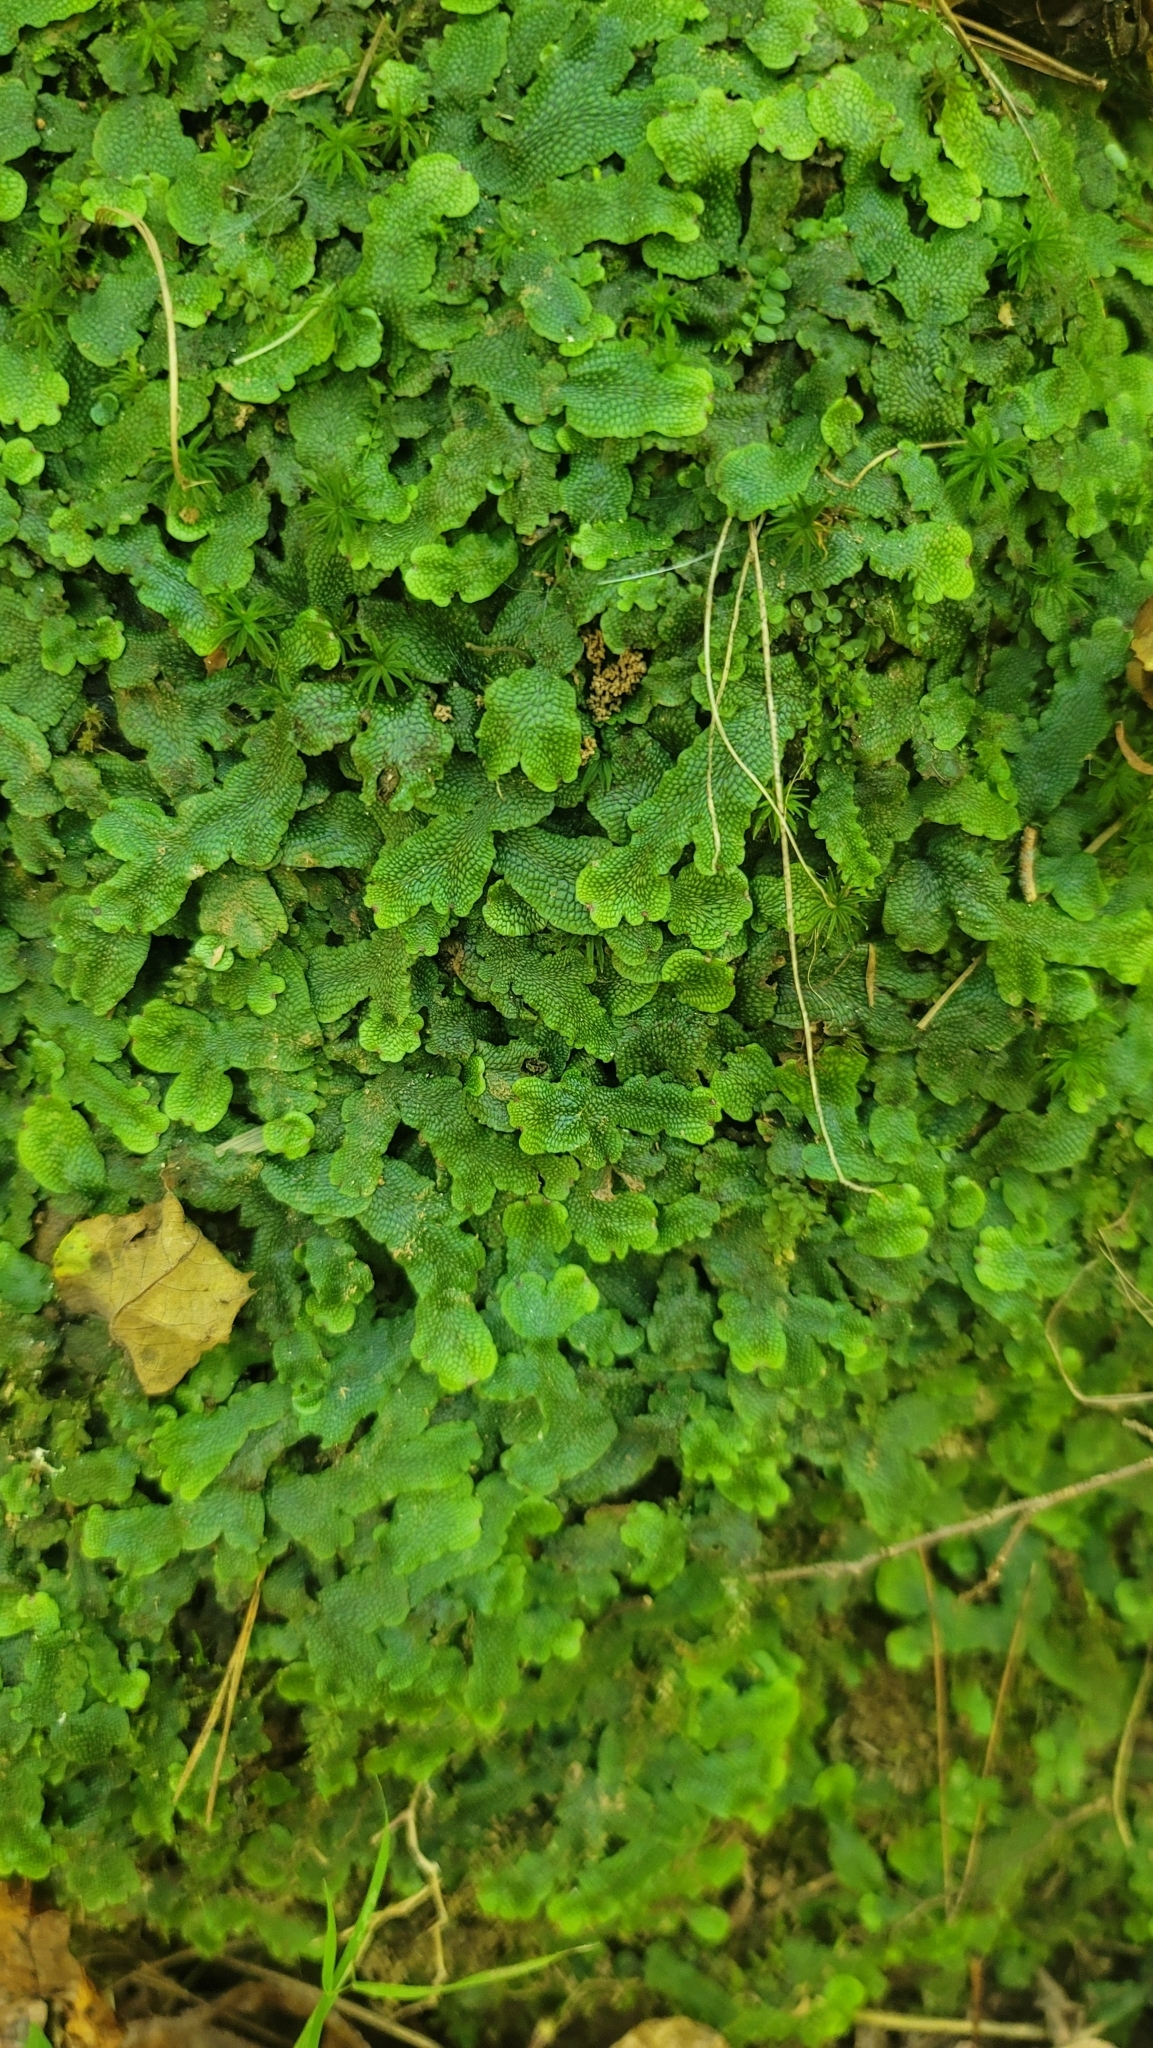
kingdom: Plantae
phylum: Marchantiophyta
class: Marchantiopsida
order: Marchantiales
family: Conocephalaceae
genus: Conocephalum
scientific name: Conocephalum salebrosum
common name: Cat-tongue liverwort
